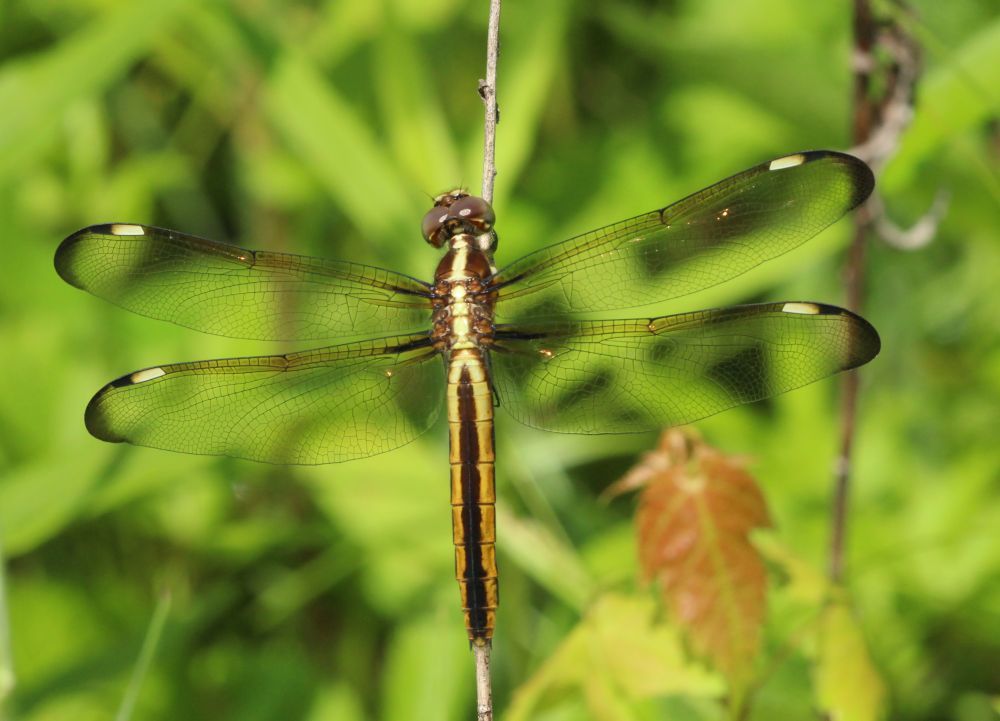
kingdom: Animalia
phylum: Arthropoda
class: Insecta
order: Odonata
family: Libellulidae
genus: Libellula
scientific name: Libellula cyanea
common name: Spangled skimmer
